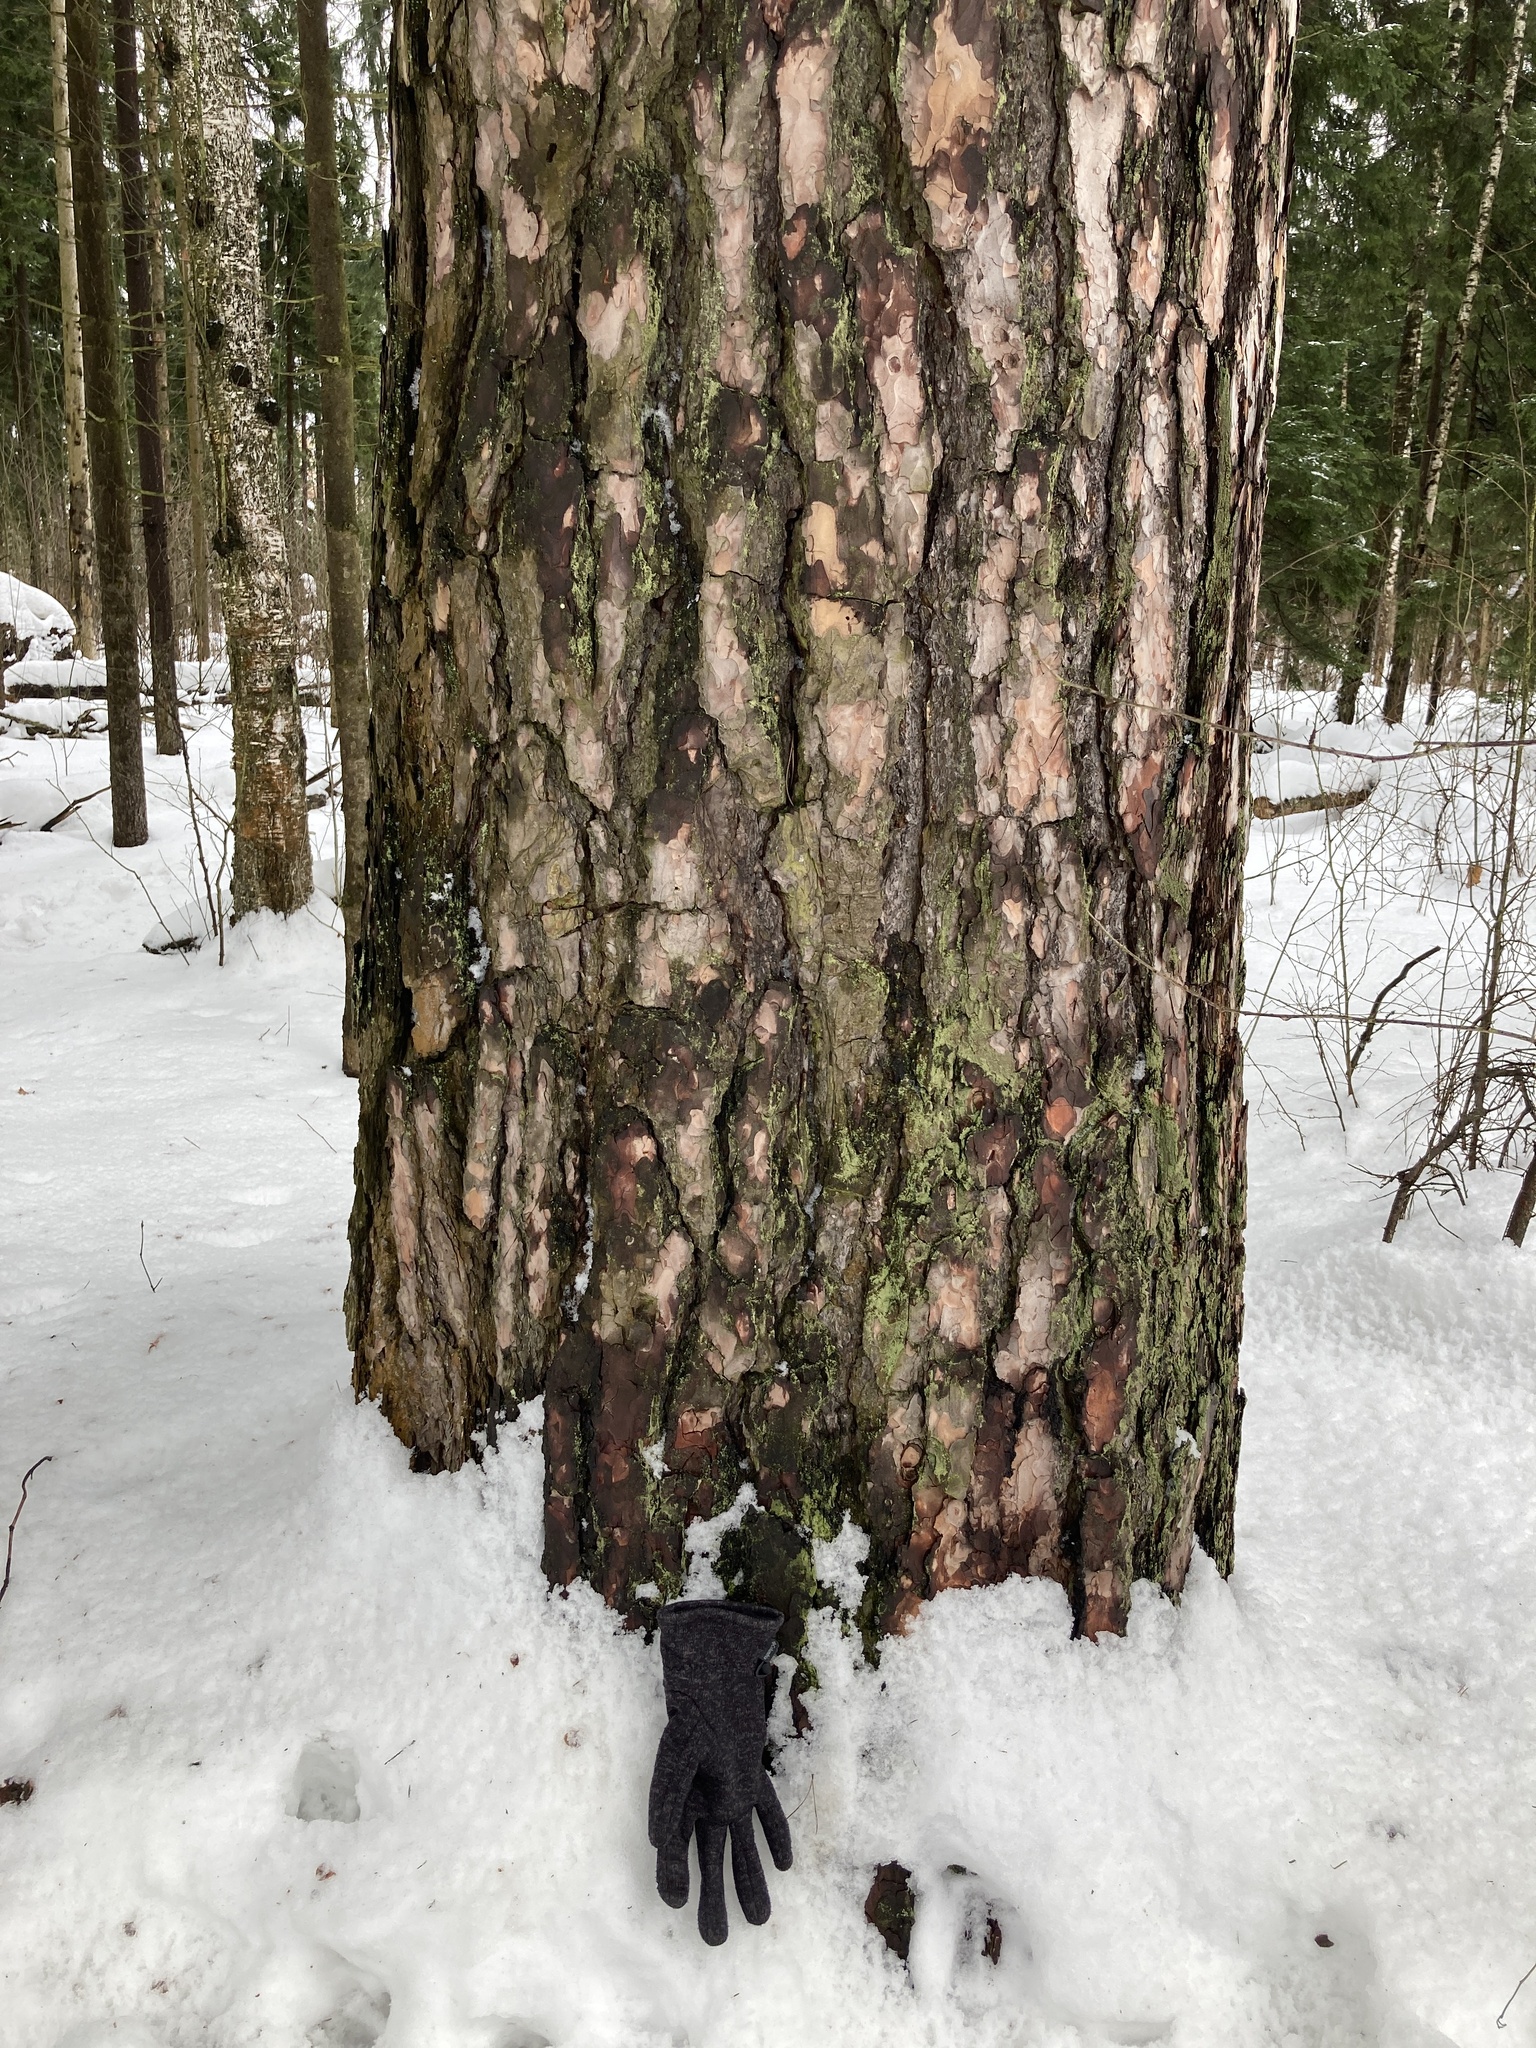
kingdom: Plantae
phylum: Tracheophyta
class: Pinopsida
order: Pinales
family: Pinaceae
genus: Pinus
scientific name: Pinus sylvestris
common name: Scots pine
